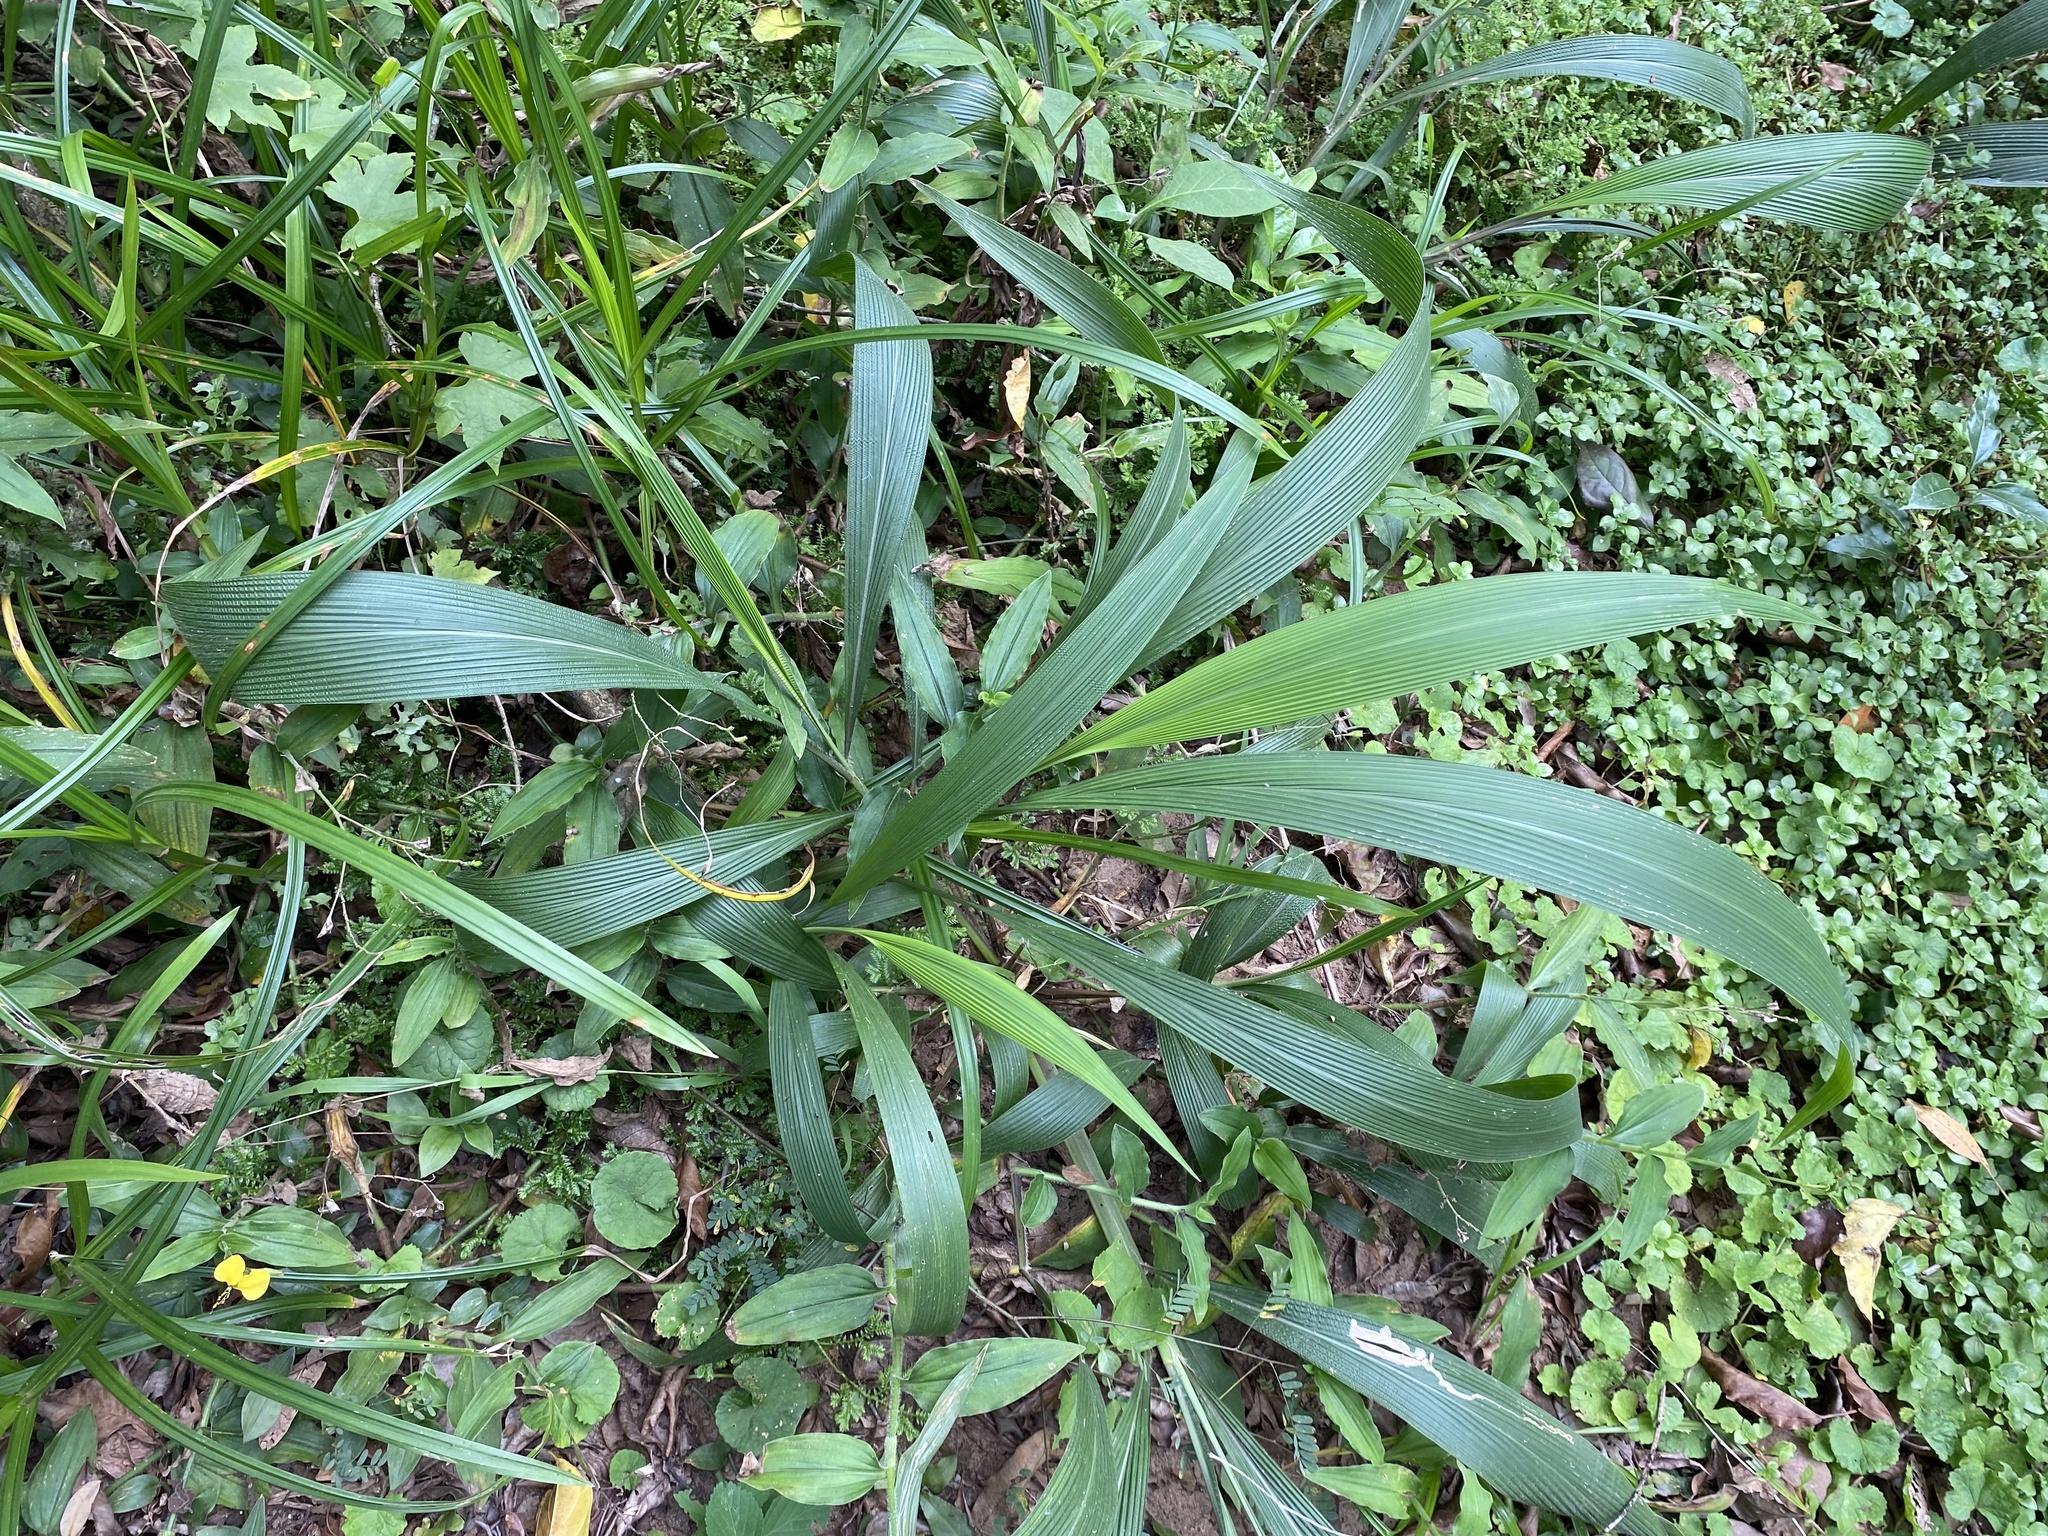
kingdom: Plantae
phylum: Tracheophyta
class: Liliopsida
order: Poales
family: Poaceae
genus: Setaria
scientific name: Setaria megaphylla
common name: Bigleaf bristlegrass
